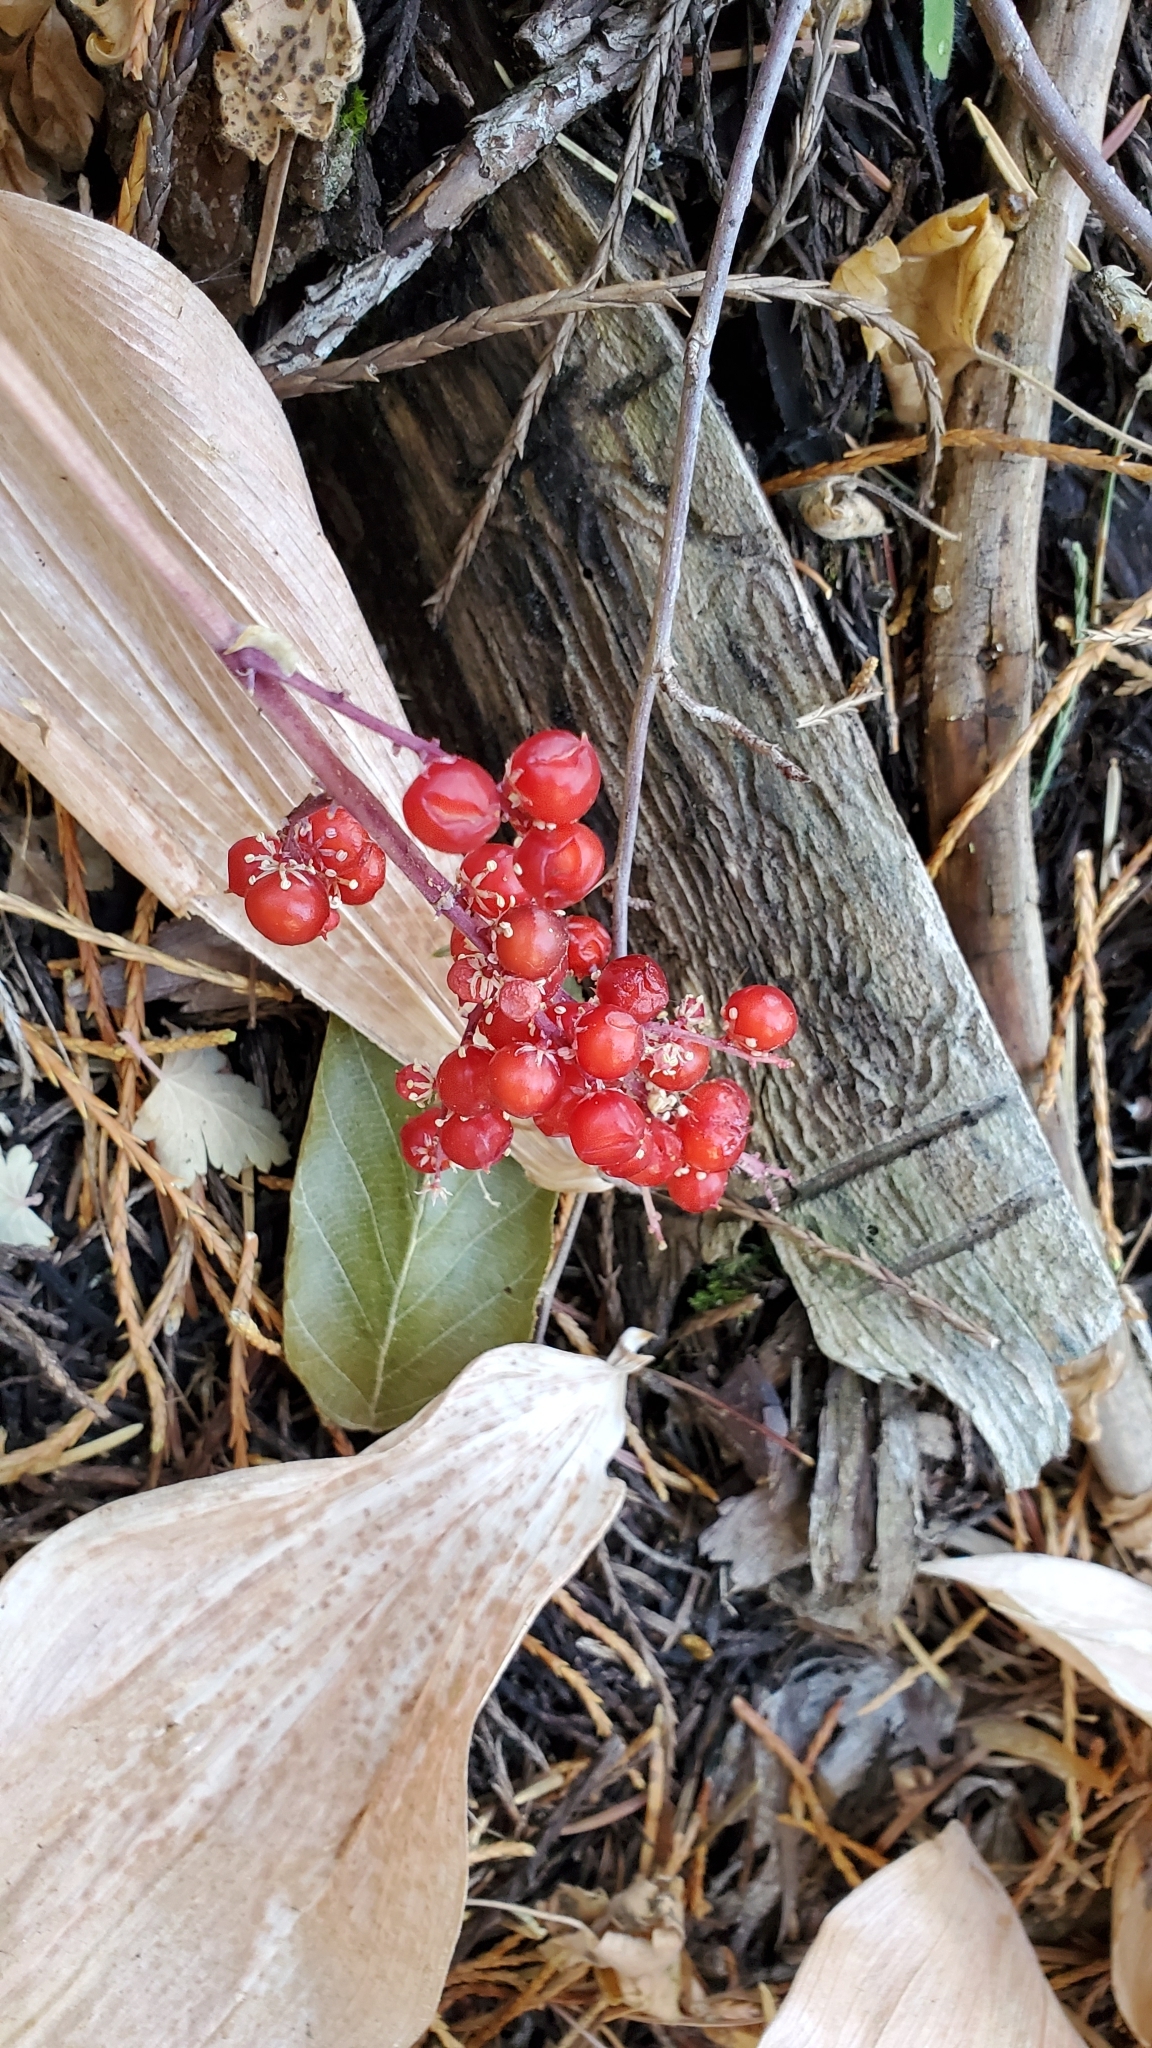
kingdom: Plantae
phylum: Tracheophyta
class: Liliopsida
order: Asparagales
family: Asparagaceae
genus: Maianthemum
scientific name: Maianthemum racemosum
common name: False spikenard
